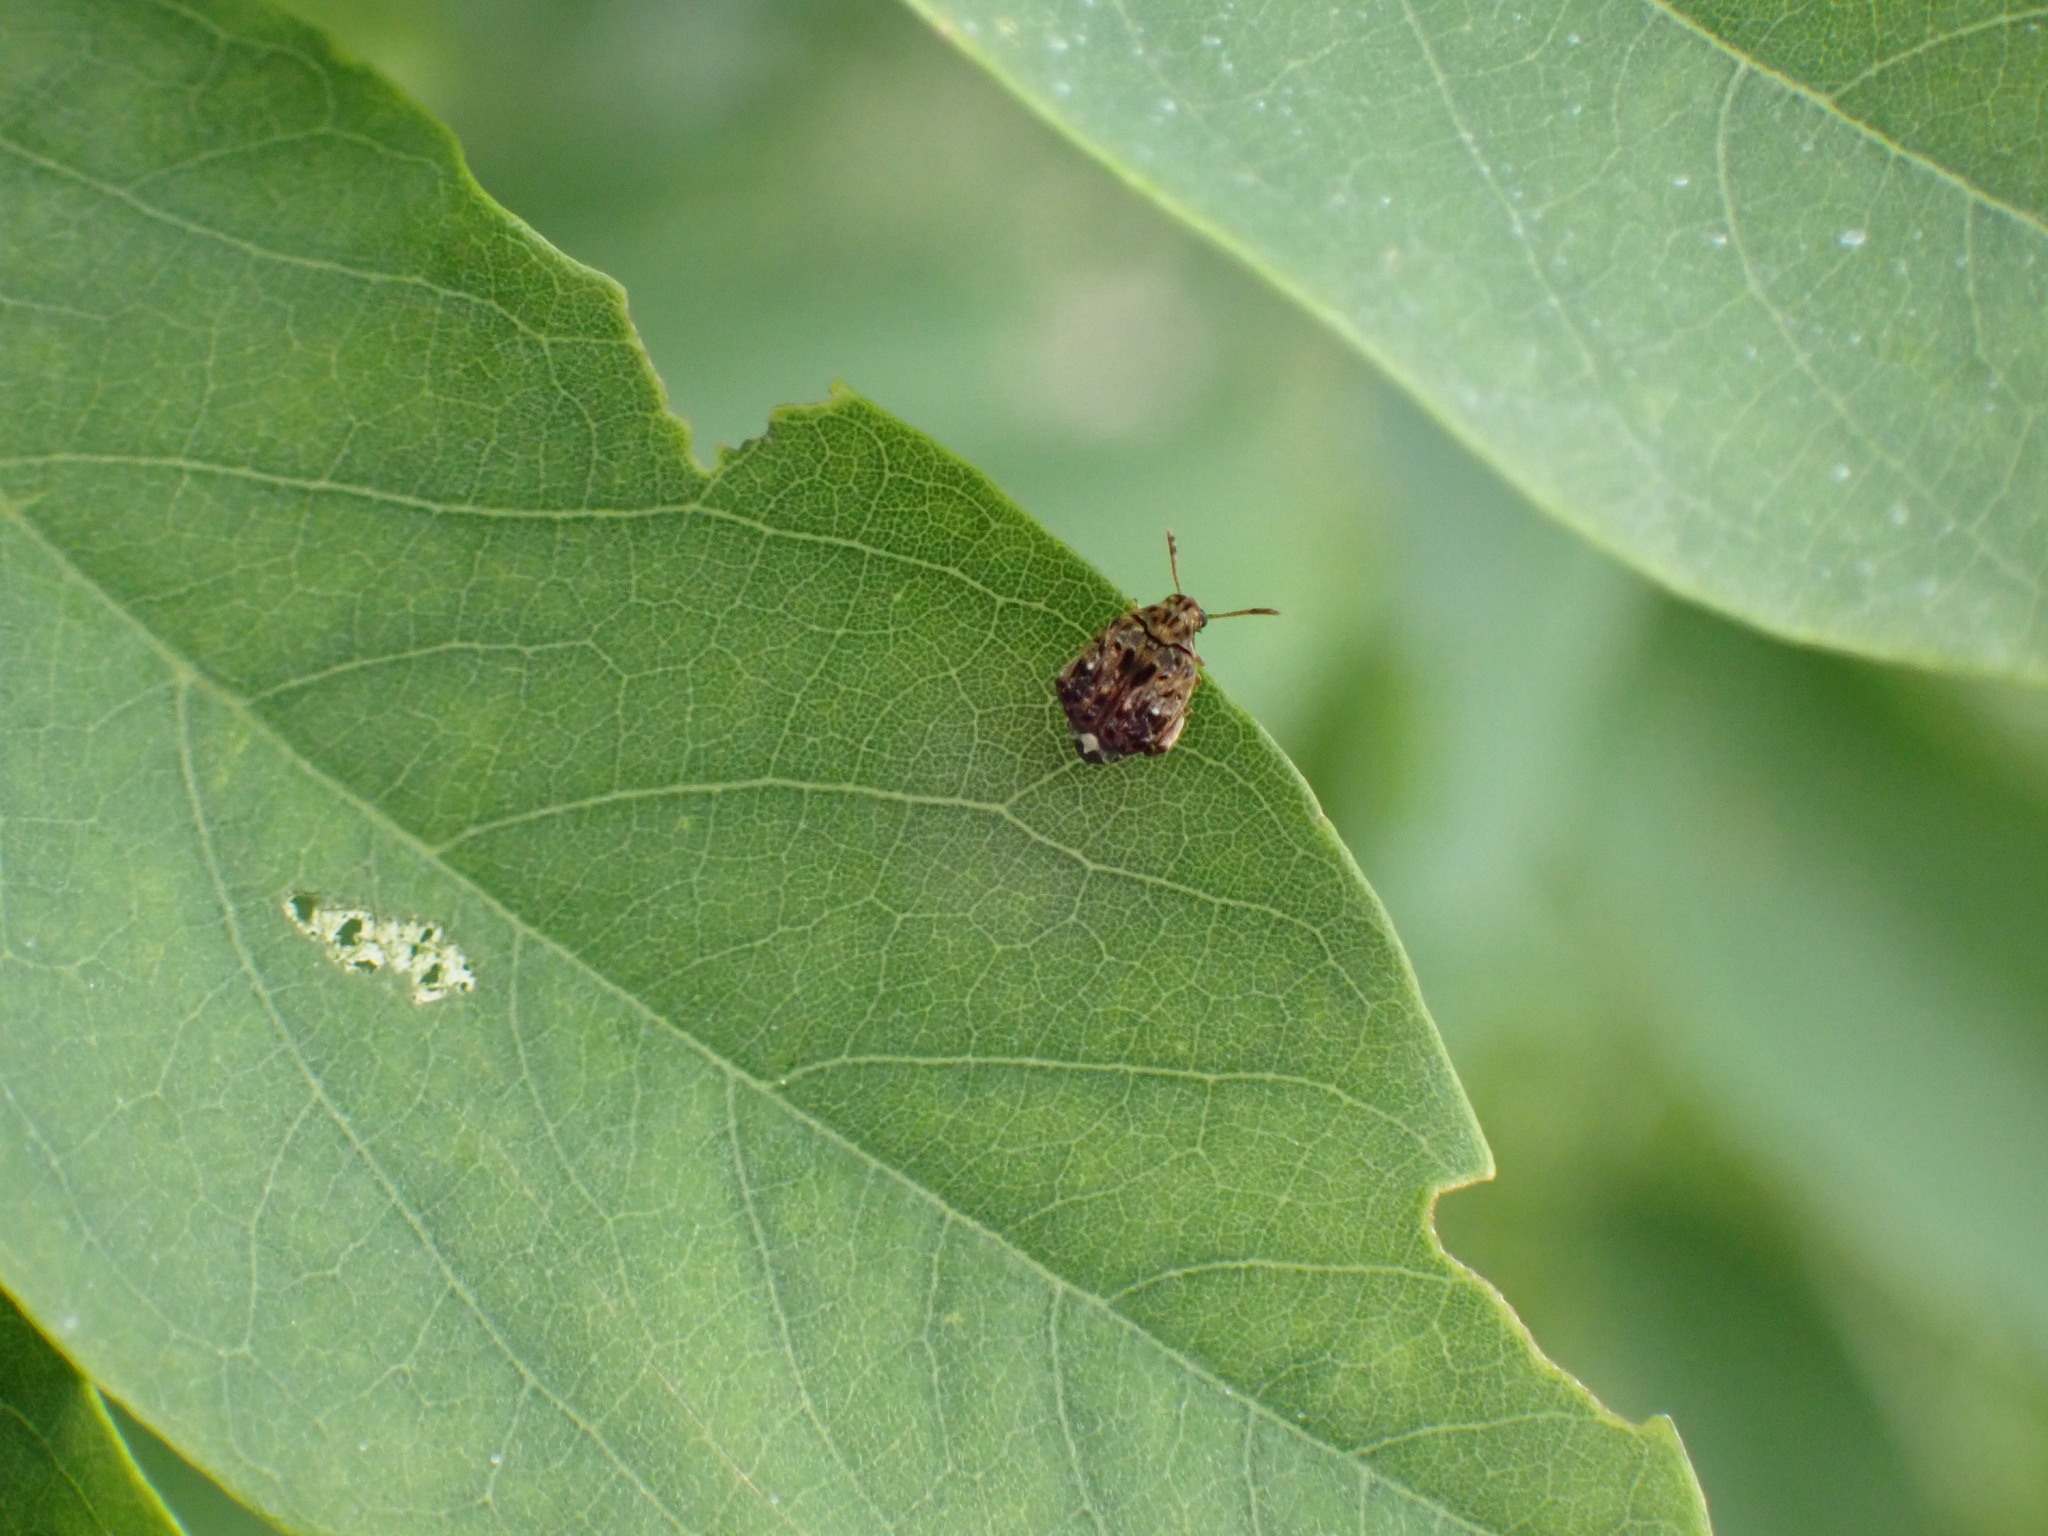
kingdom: Animalia
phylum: Arthropoda
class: Insecta
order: Coleoptera
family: Chrysomelidae
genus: Gibbobruchus
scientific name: Gibbobruchus mimus
